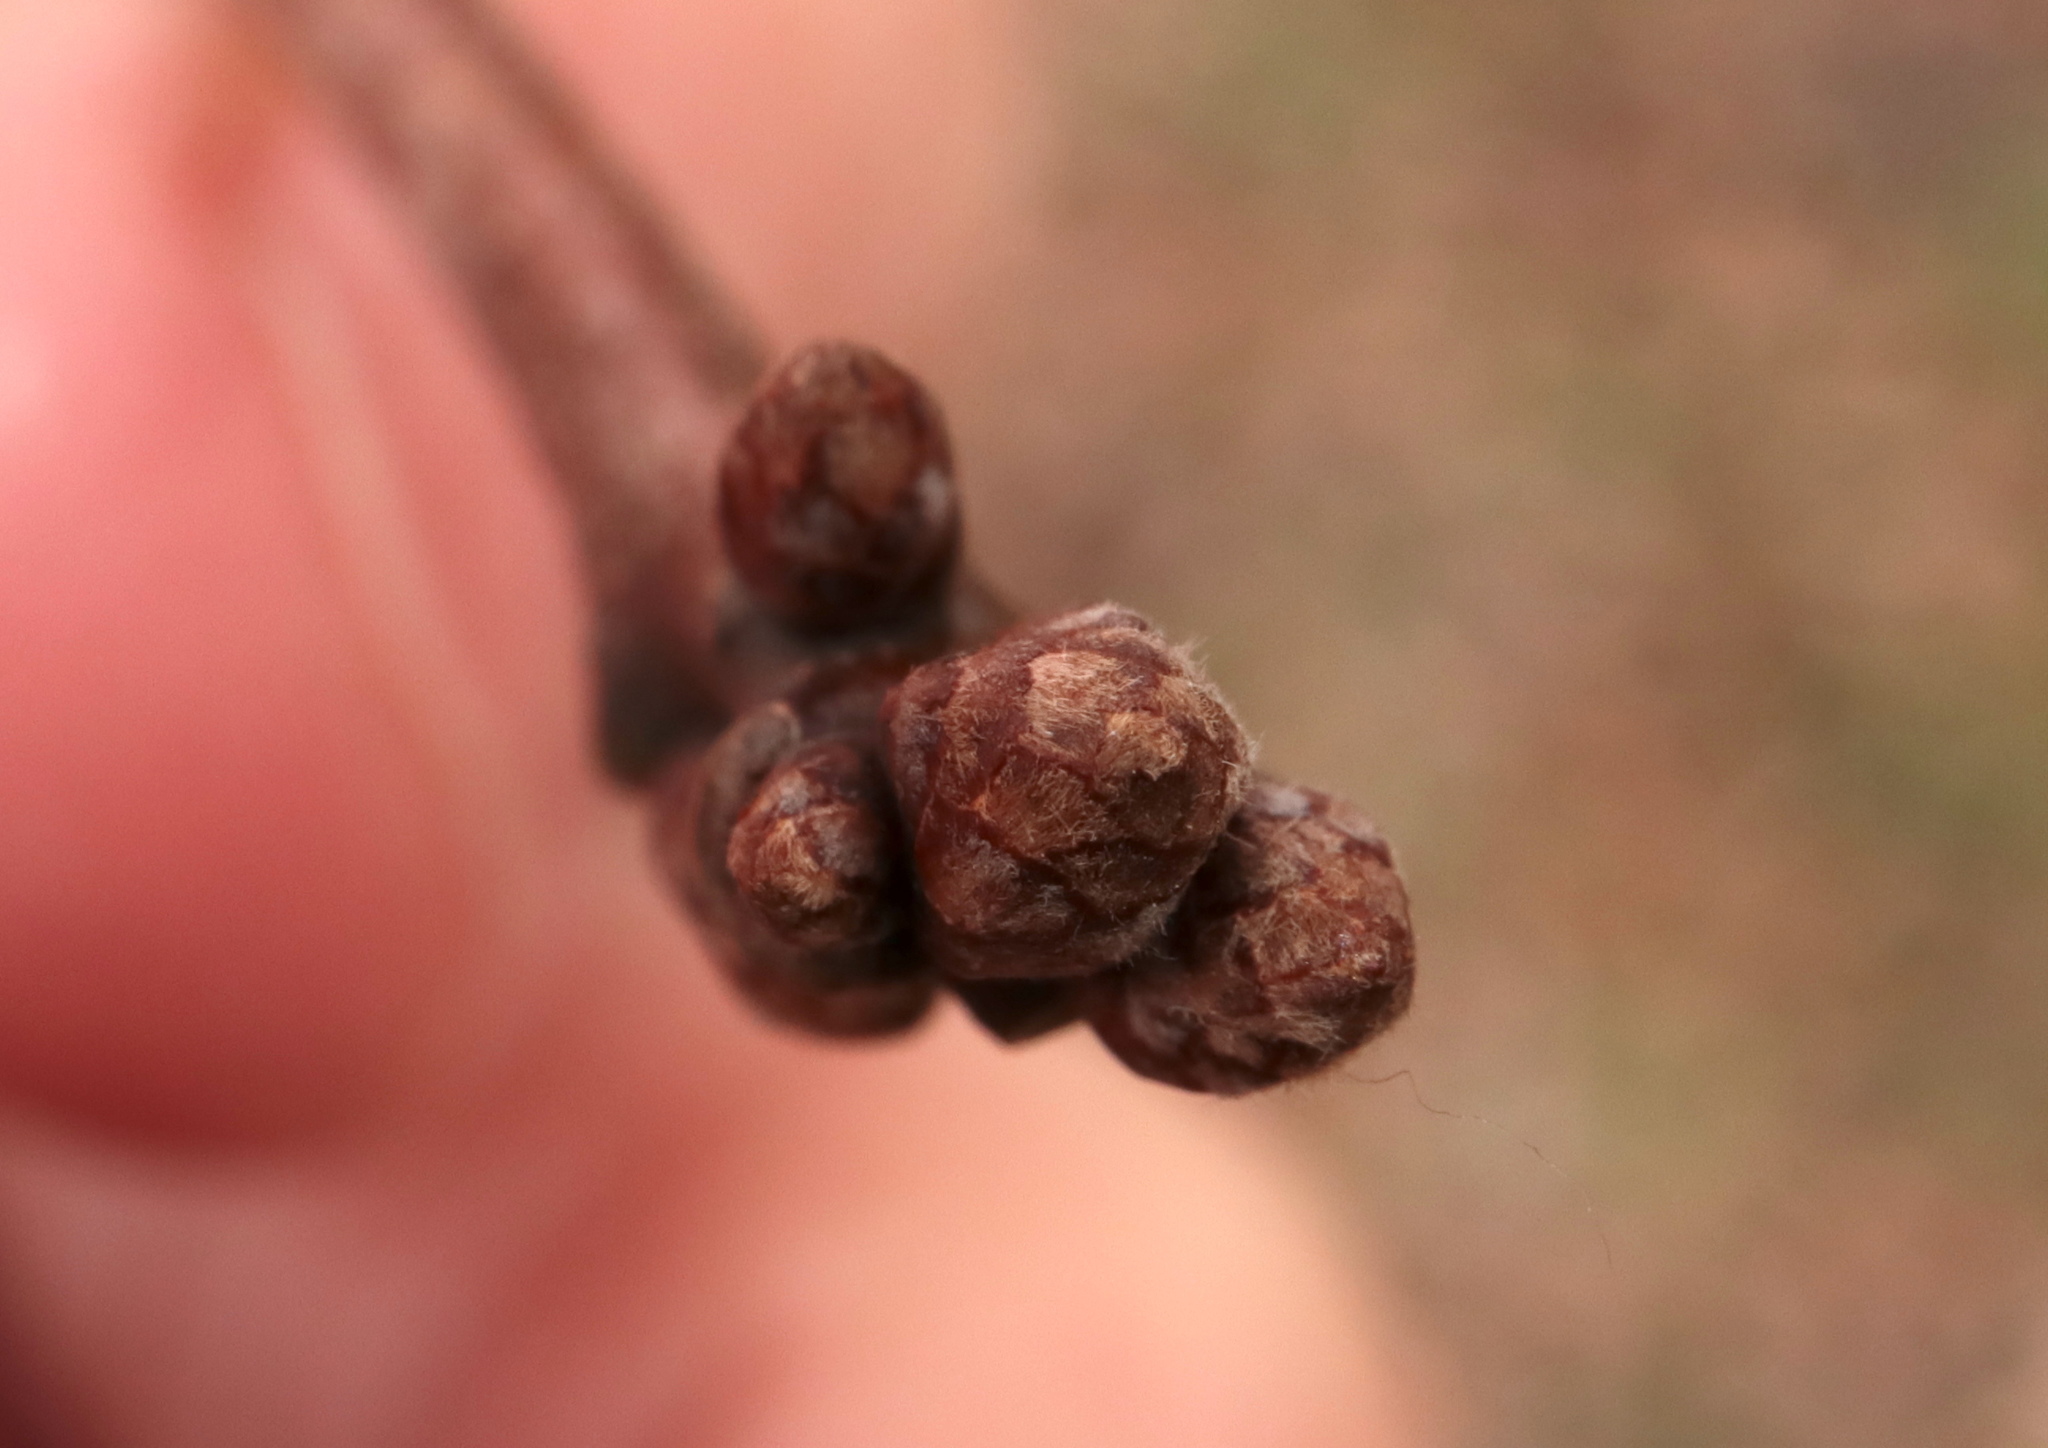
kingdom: Plantae
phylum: Tracheophyta
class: Magnoliopsida
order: Fagales
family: Fagaceae
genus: Quercus
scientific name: Quercus benderi
